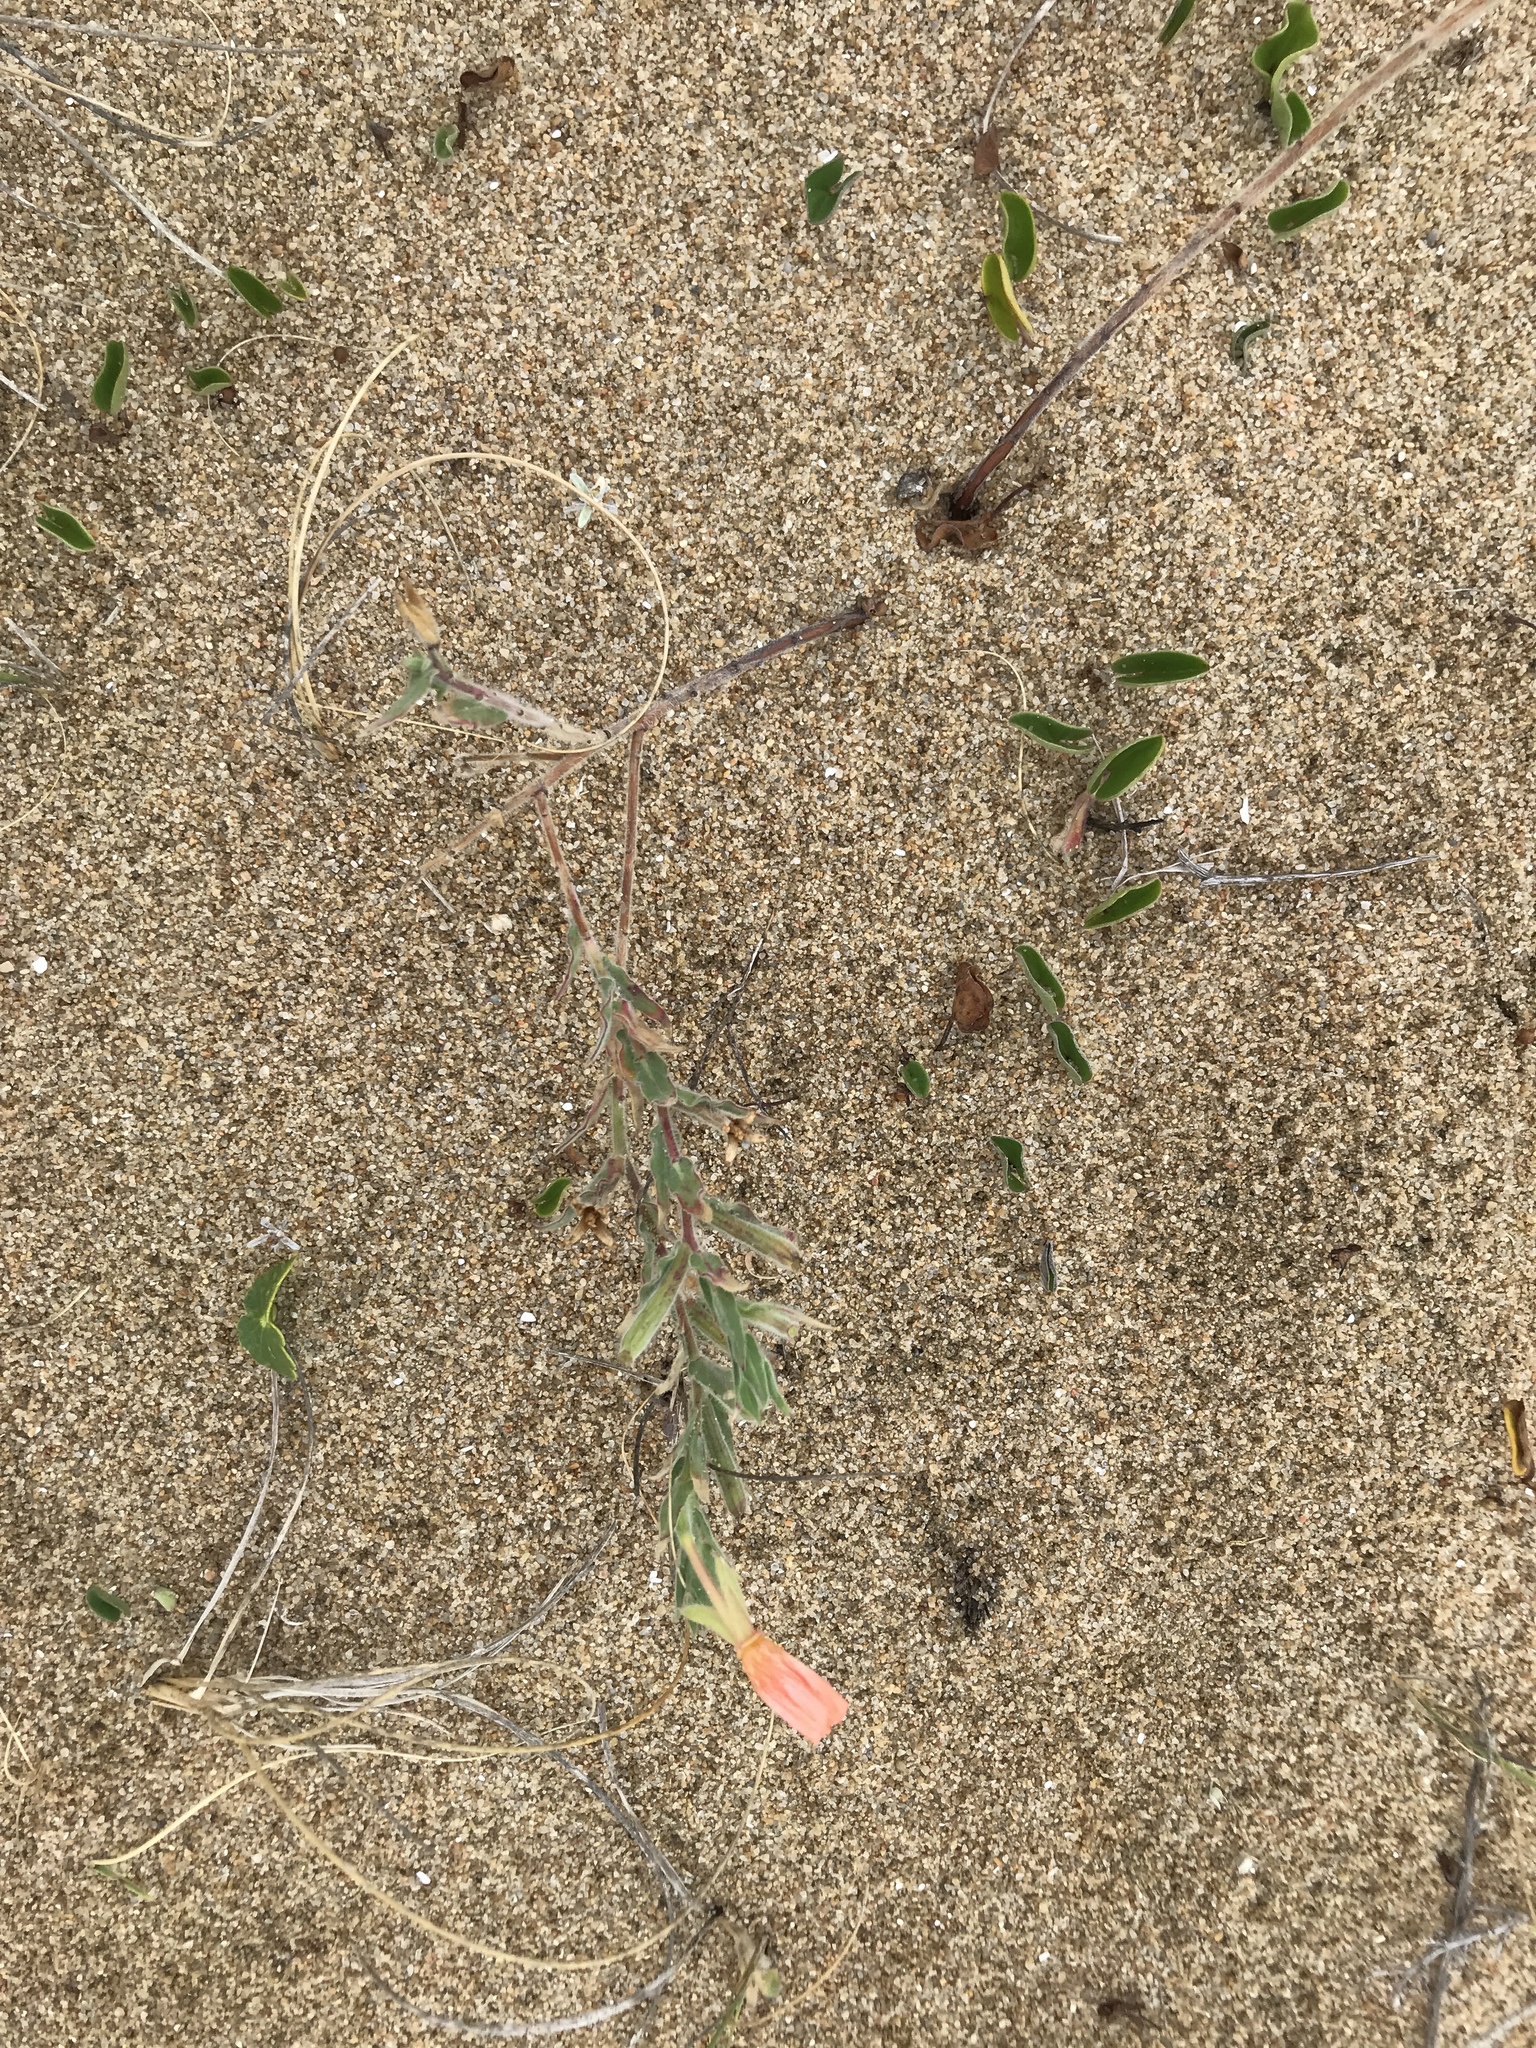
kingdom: Plantae
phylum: Tracheophyta
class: Magnoliopsida
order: Myrtales
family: Onagraceae
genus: Oenothera
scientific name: Oenothera mollissima
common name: Argentine evening primrose
